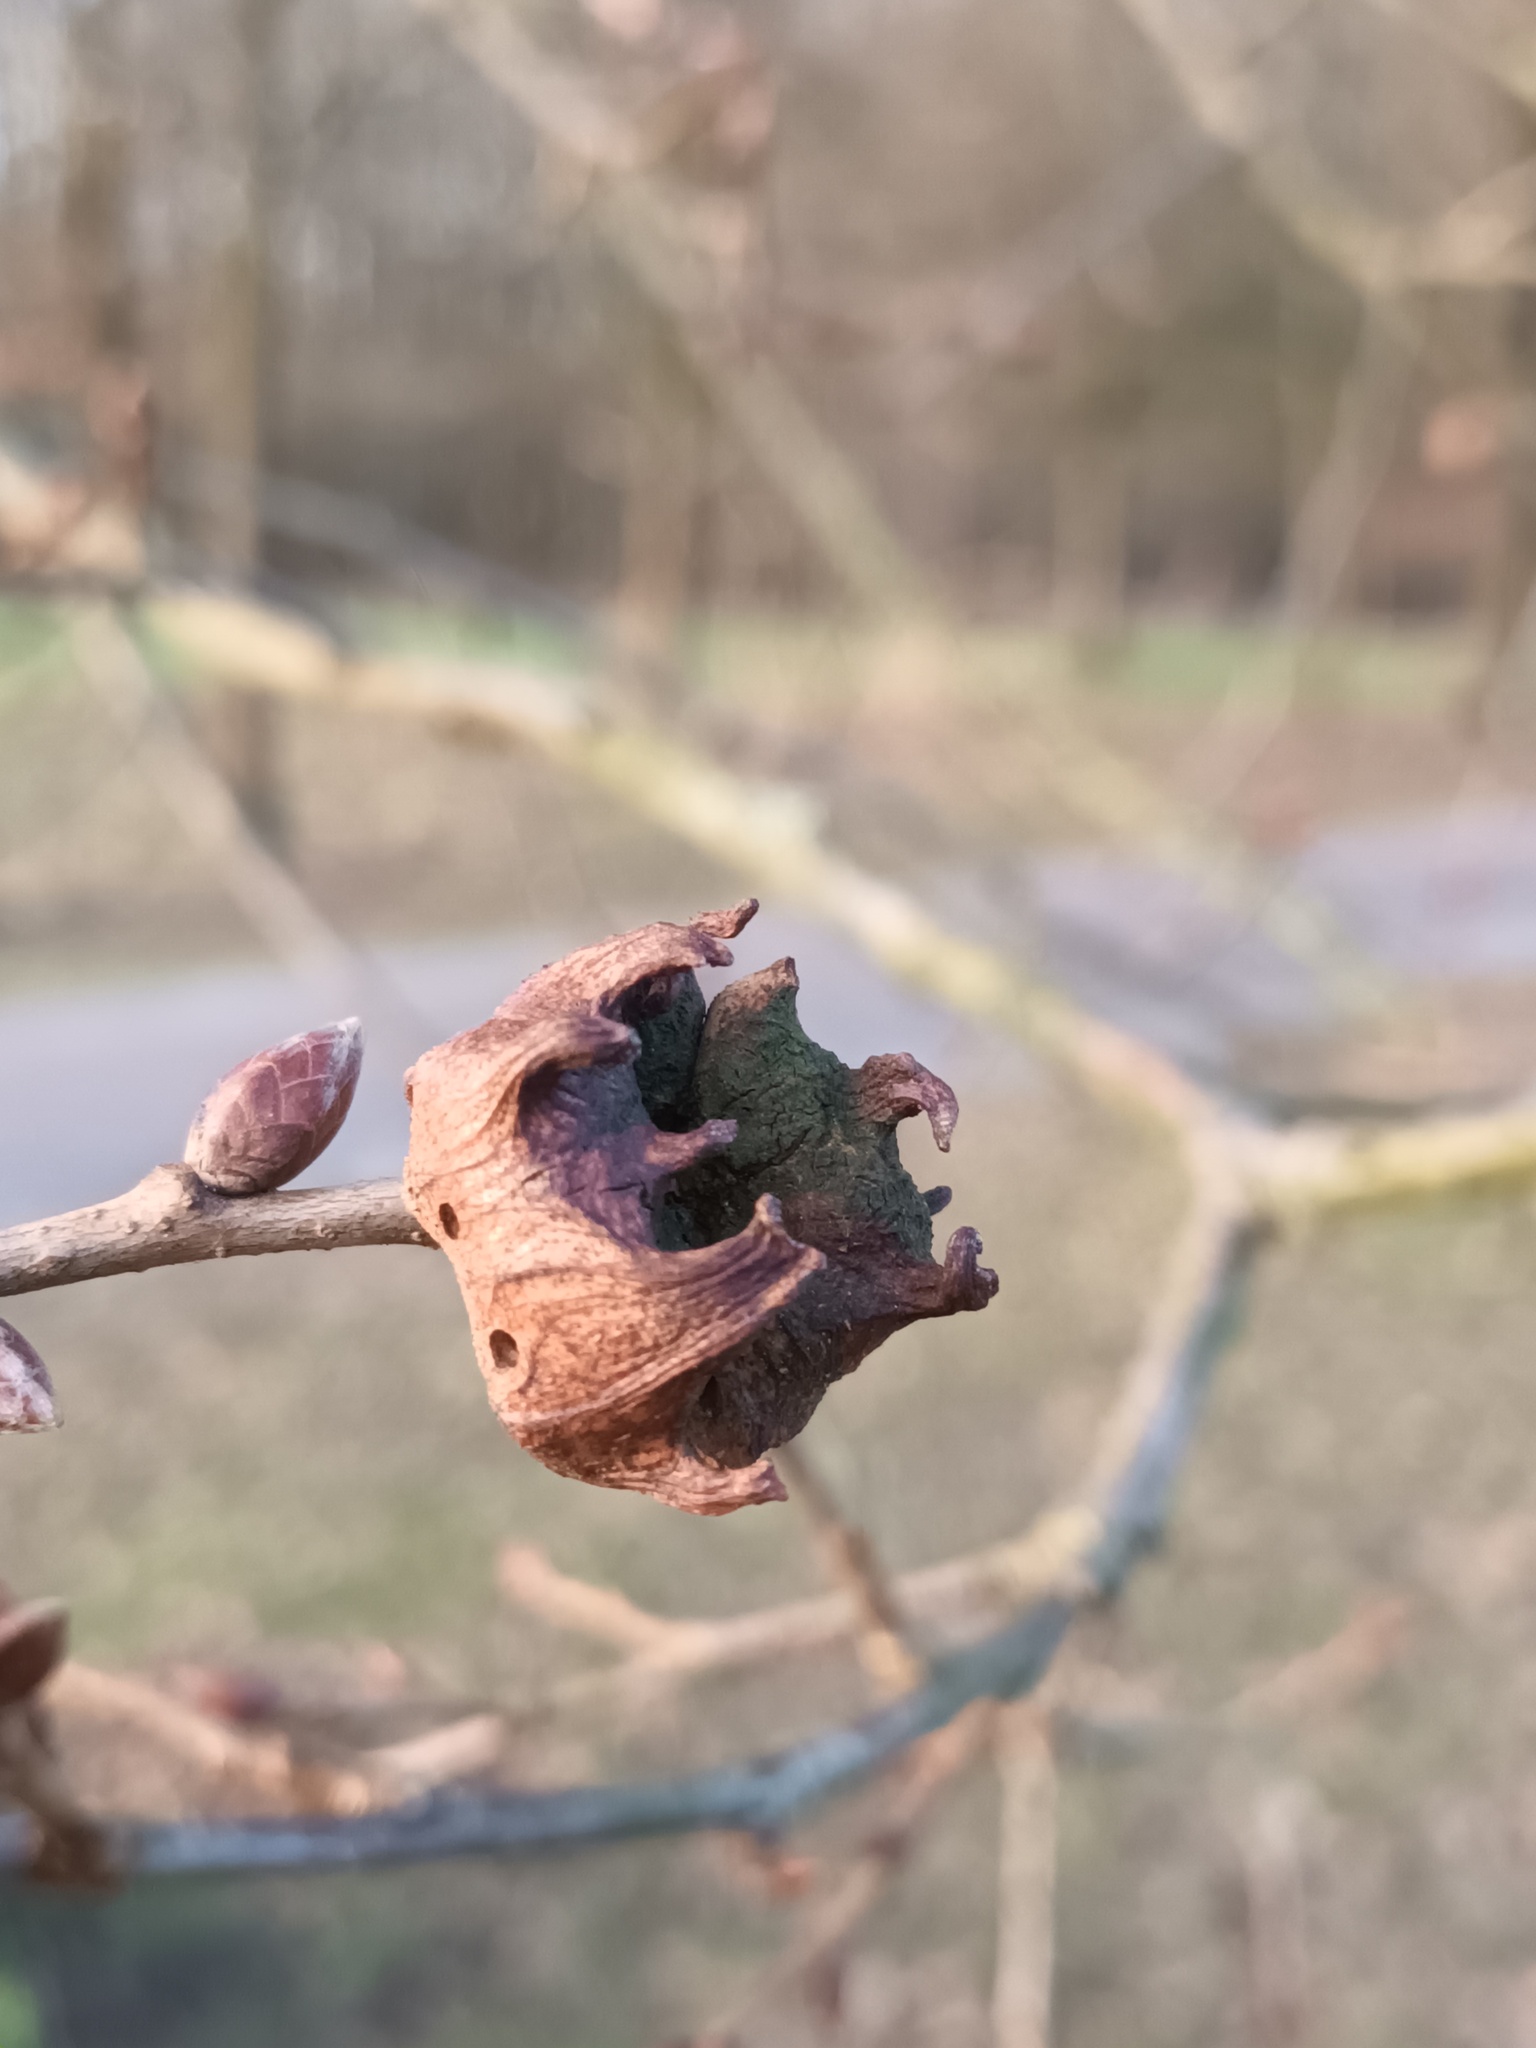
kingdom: Animalia
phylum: Arthropoda
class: Insecta
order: Hymenoptera
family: Cynipidae
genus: Andricus
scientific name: Andricus coriarius
